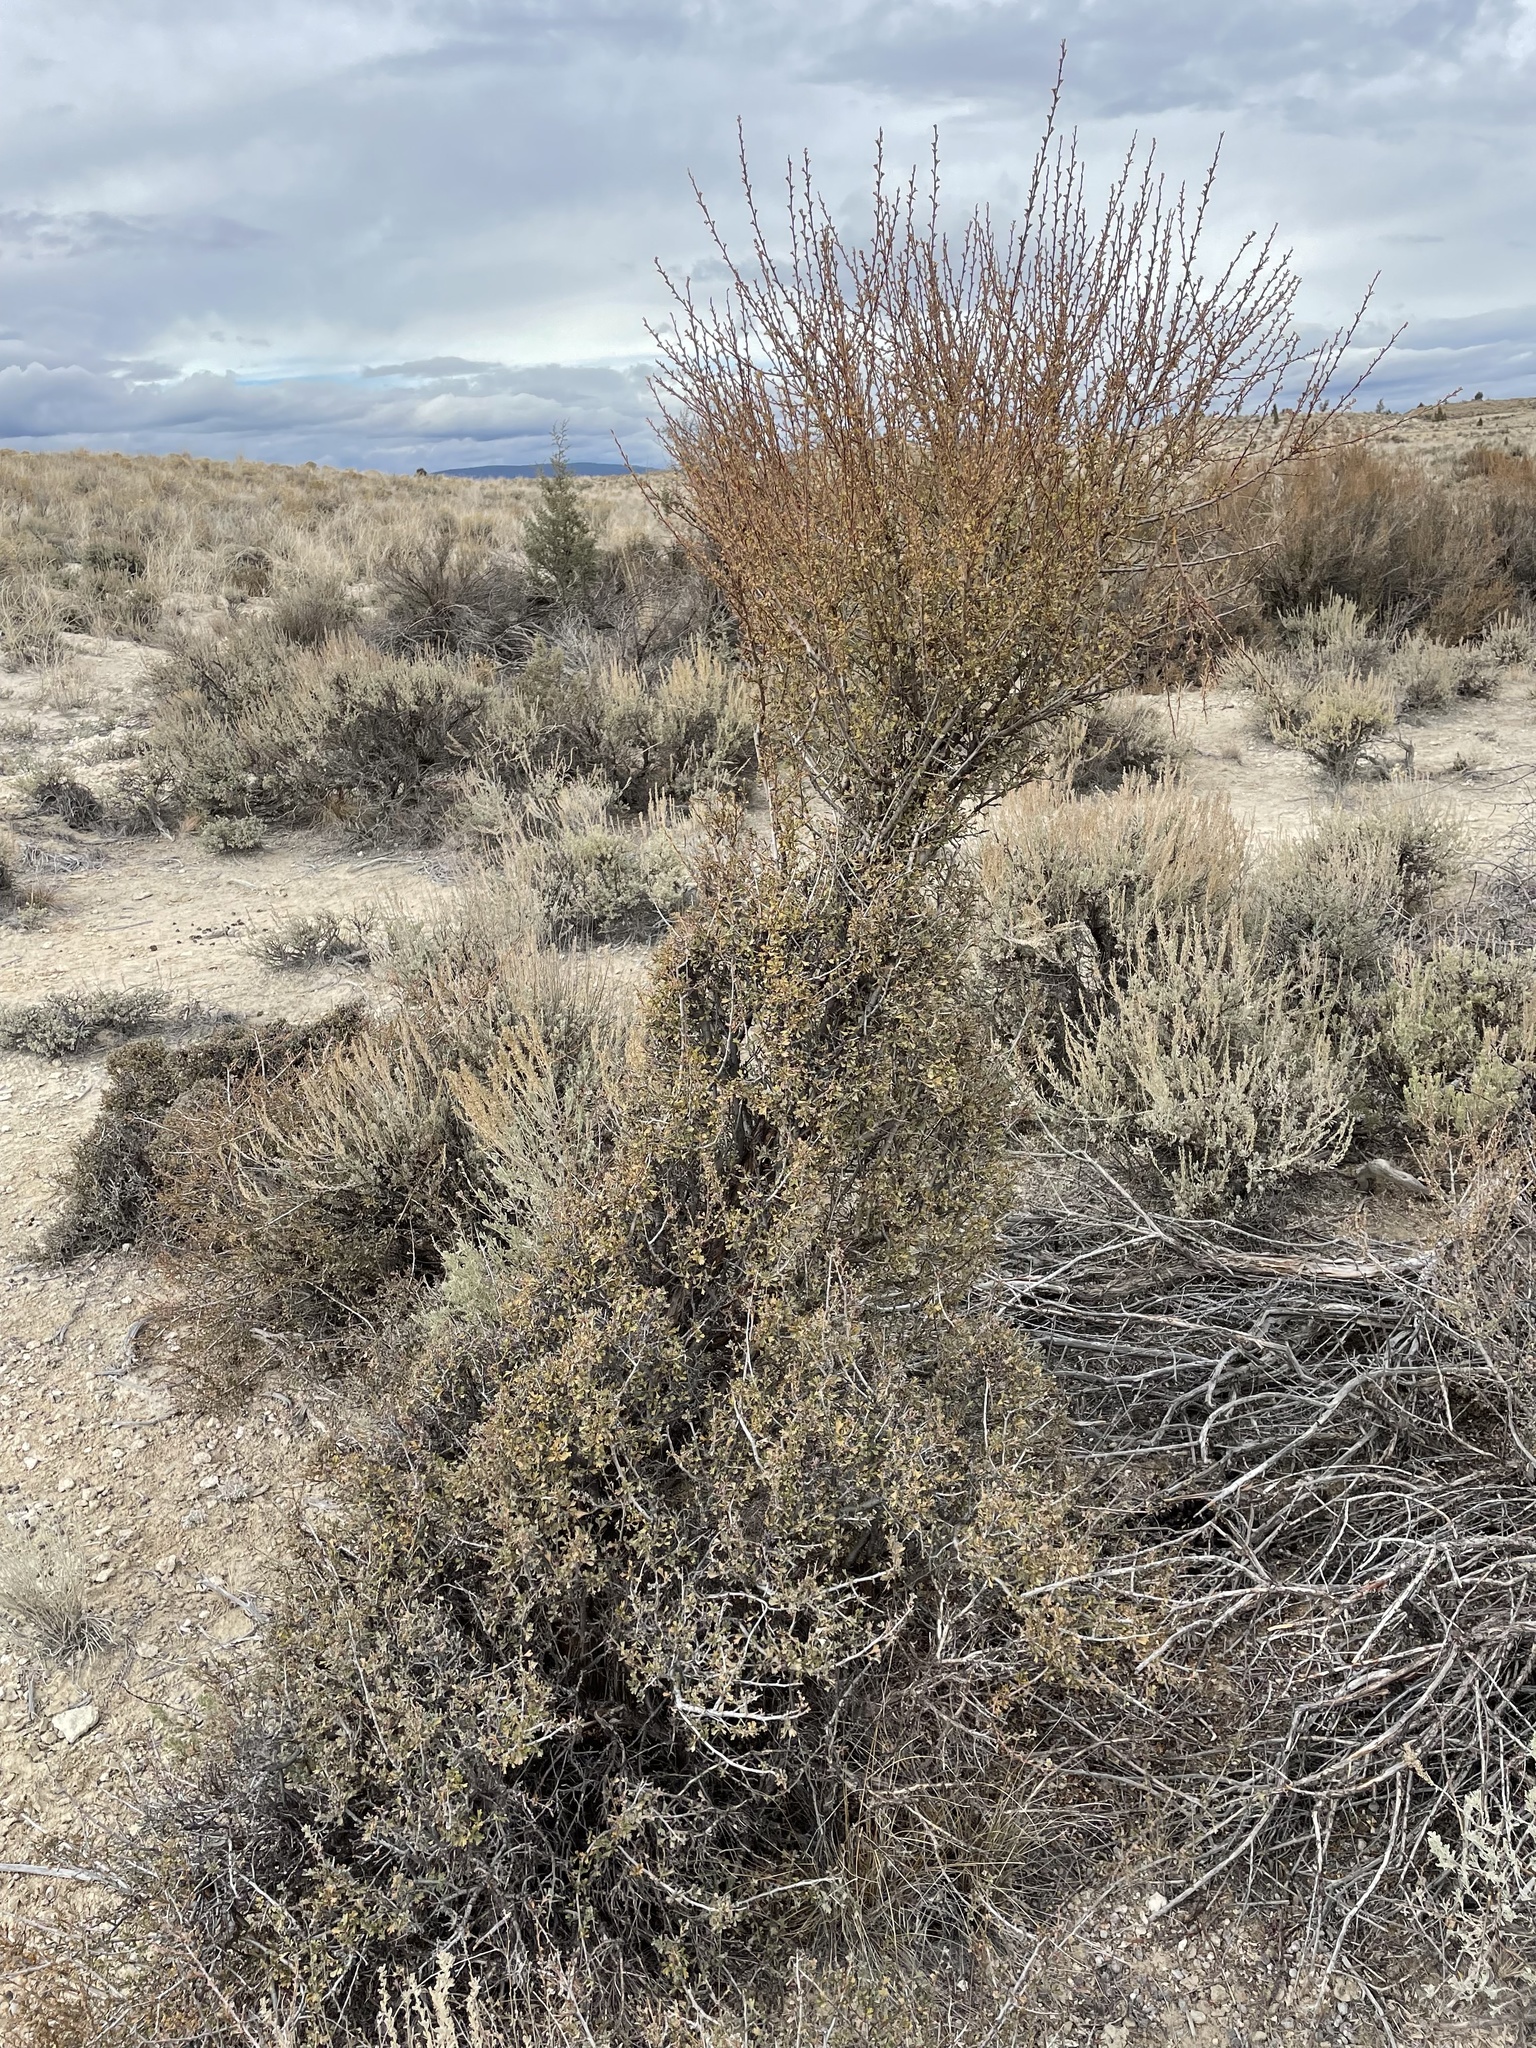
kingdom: Plantae
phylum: Tracheophyta
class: Magnoliopsida
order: Rosales
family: Rosaceae
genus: Purshia
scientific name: Purshia tridentata
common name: Antelope bitterbrush
